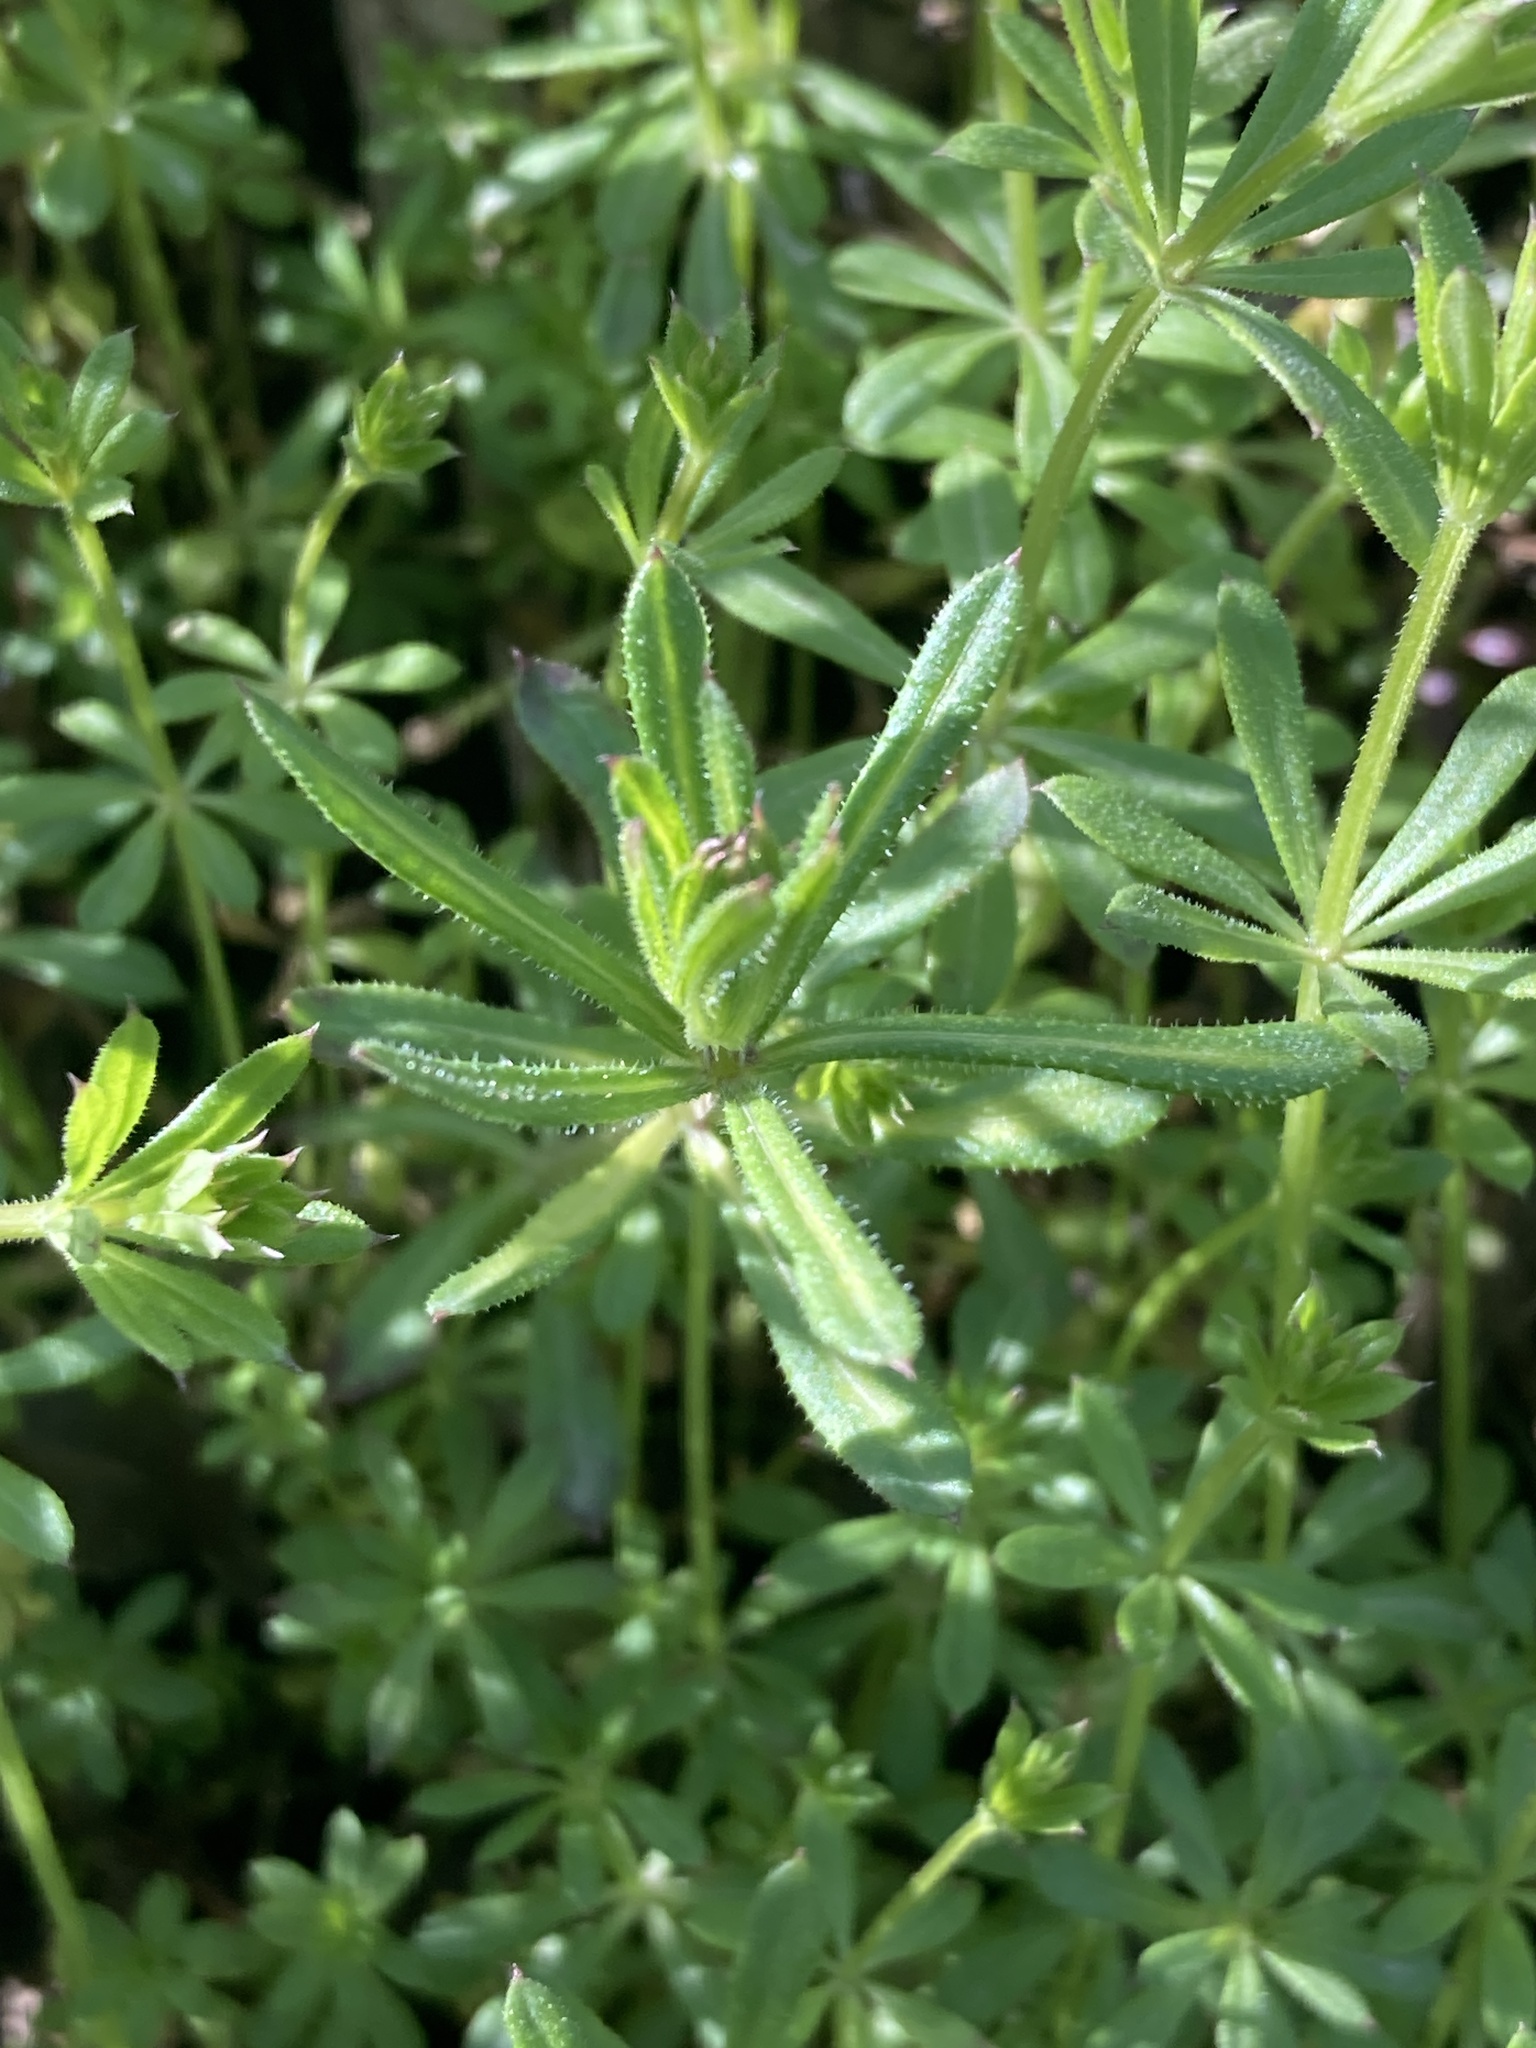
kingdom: Plantae
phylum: Tracheophyta
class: Magnoliopsida
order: Gentianales
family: Rubiaceae
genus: Galium
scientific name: Galium aparine
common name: Cleavers
